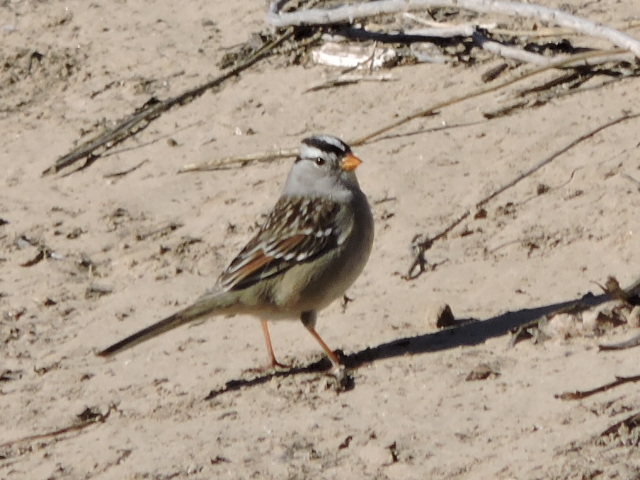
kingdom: Animalia
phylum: Chordata
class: Aves
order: Passeriformes
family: Passerellidae
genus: Zonotrichia
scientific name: Zonotrichia leucophrys
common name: White-crowned sparrow
